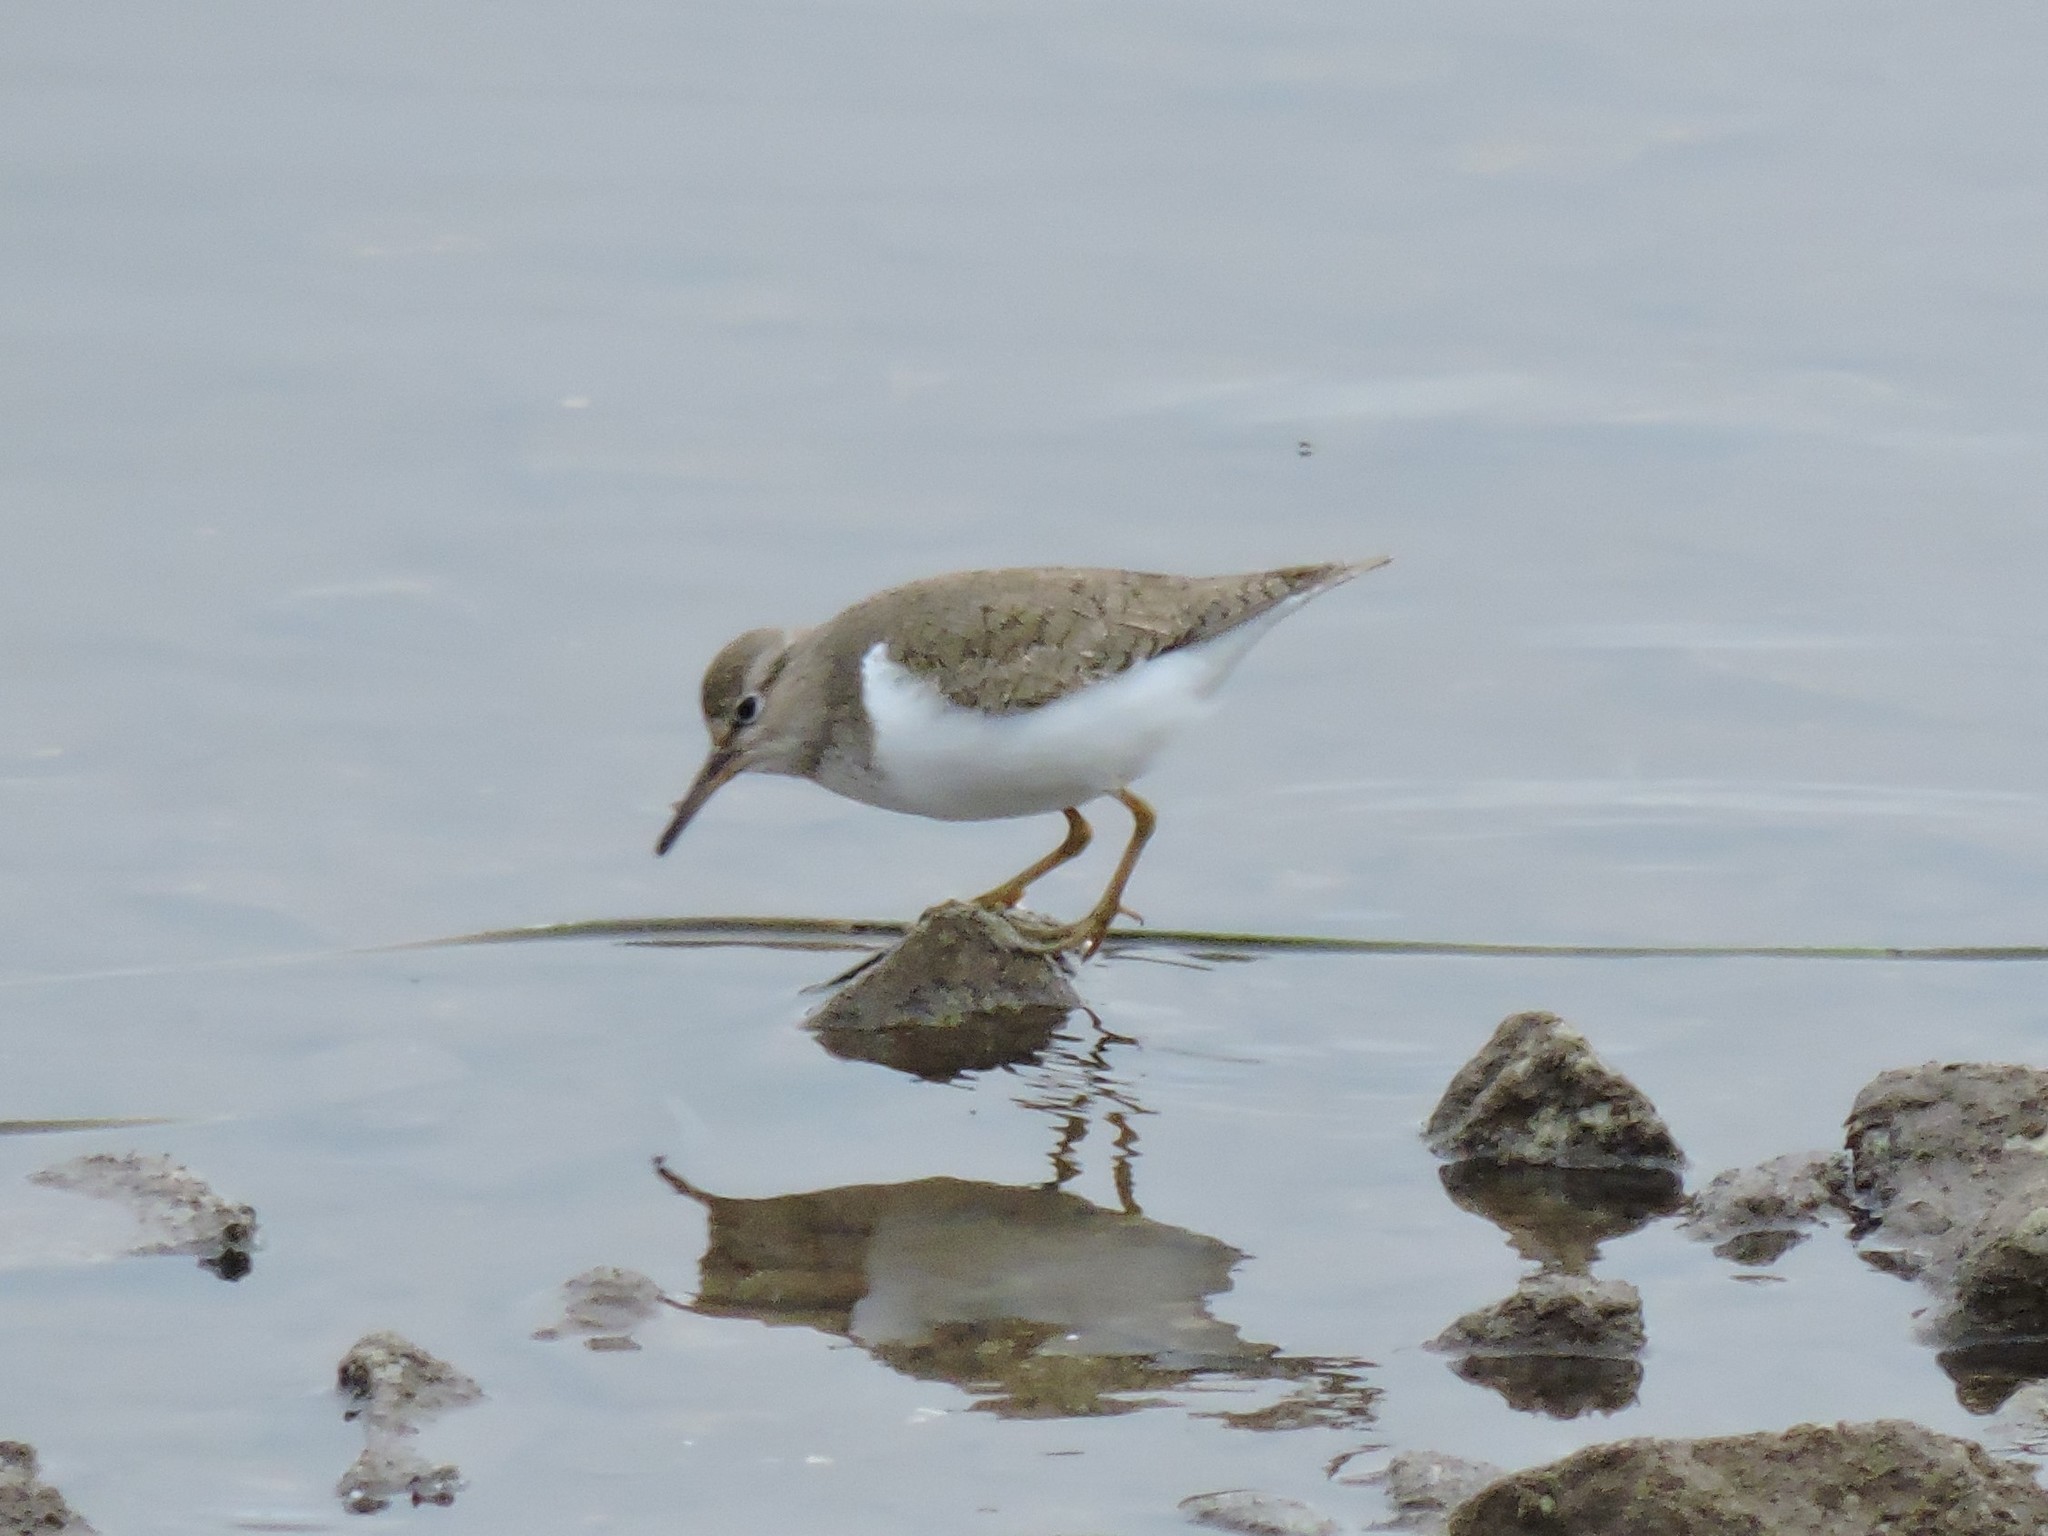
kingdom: Animalia
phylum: Chordata
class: Aves
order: Charadriiformes
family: Scolopacidae
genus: Actitis
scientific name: Actitis hypoleucos
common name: Common sandpiper
